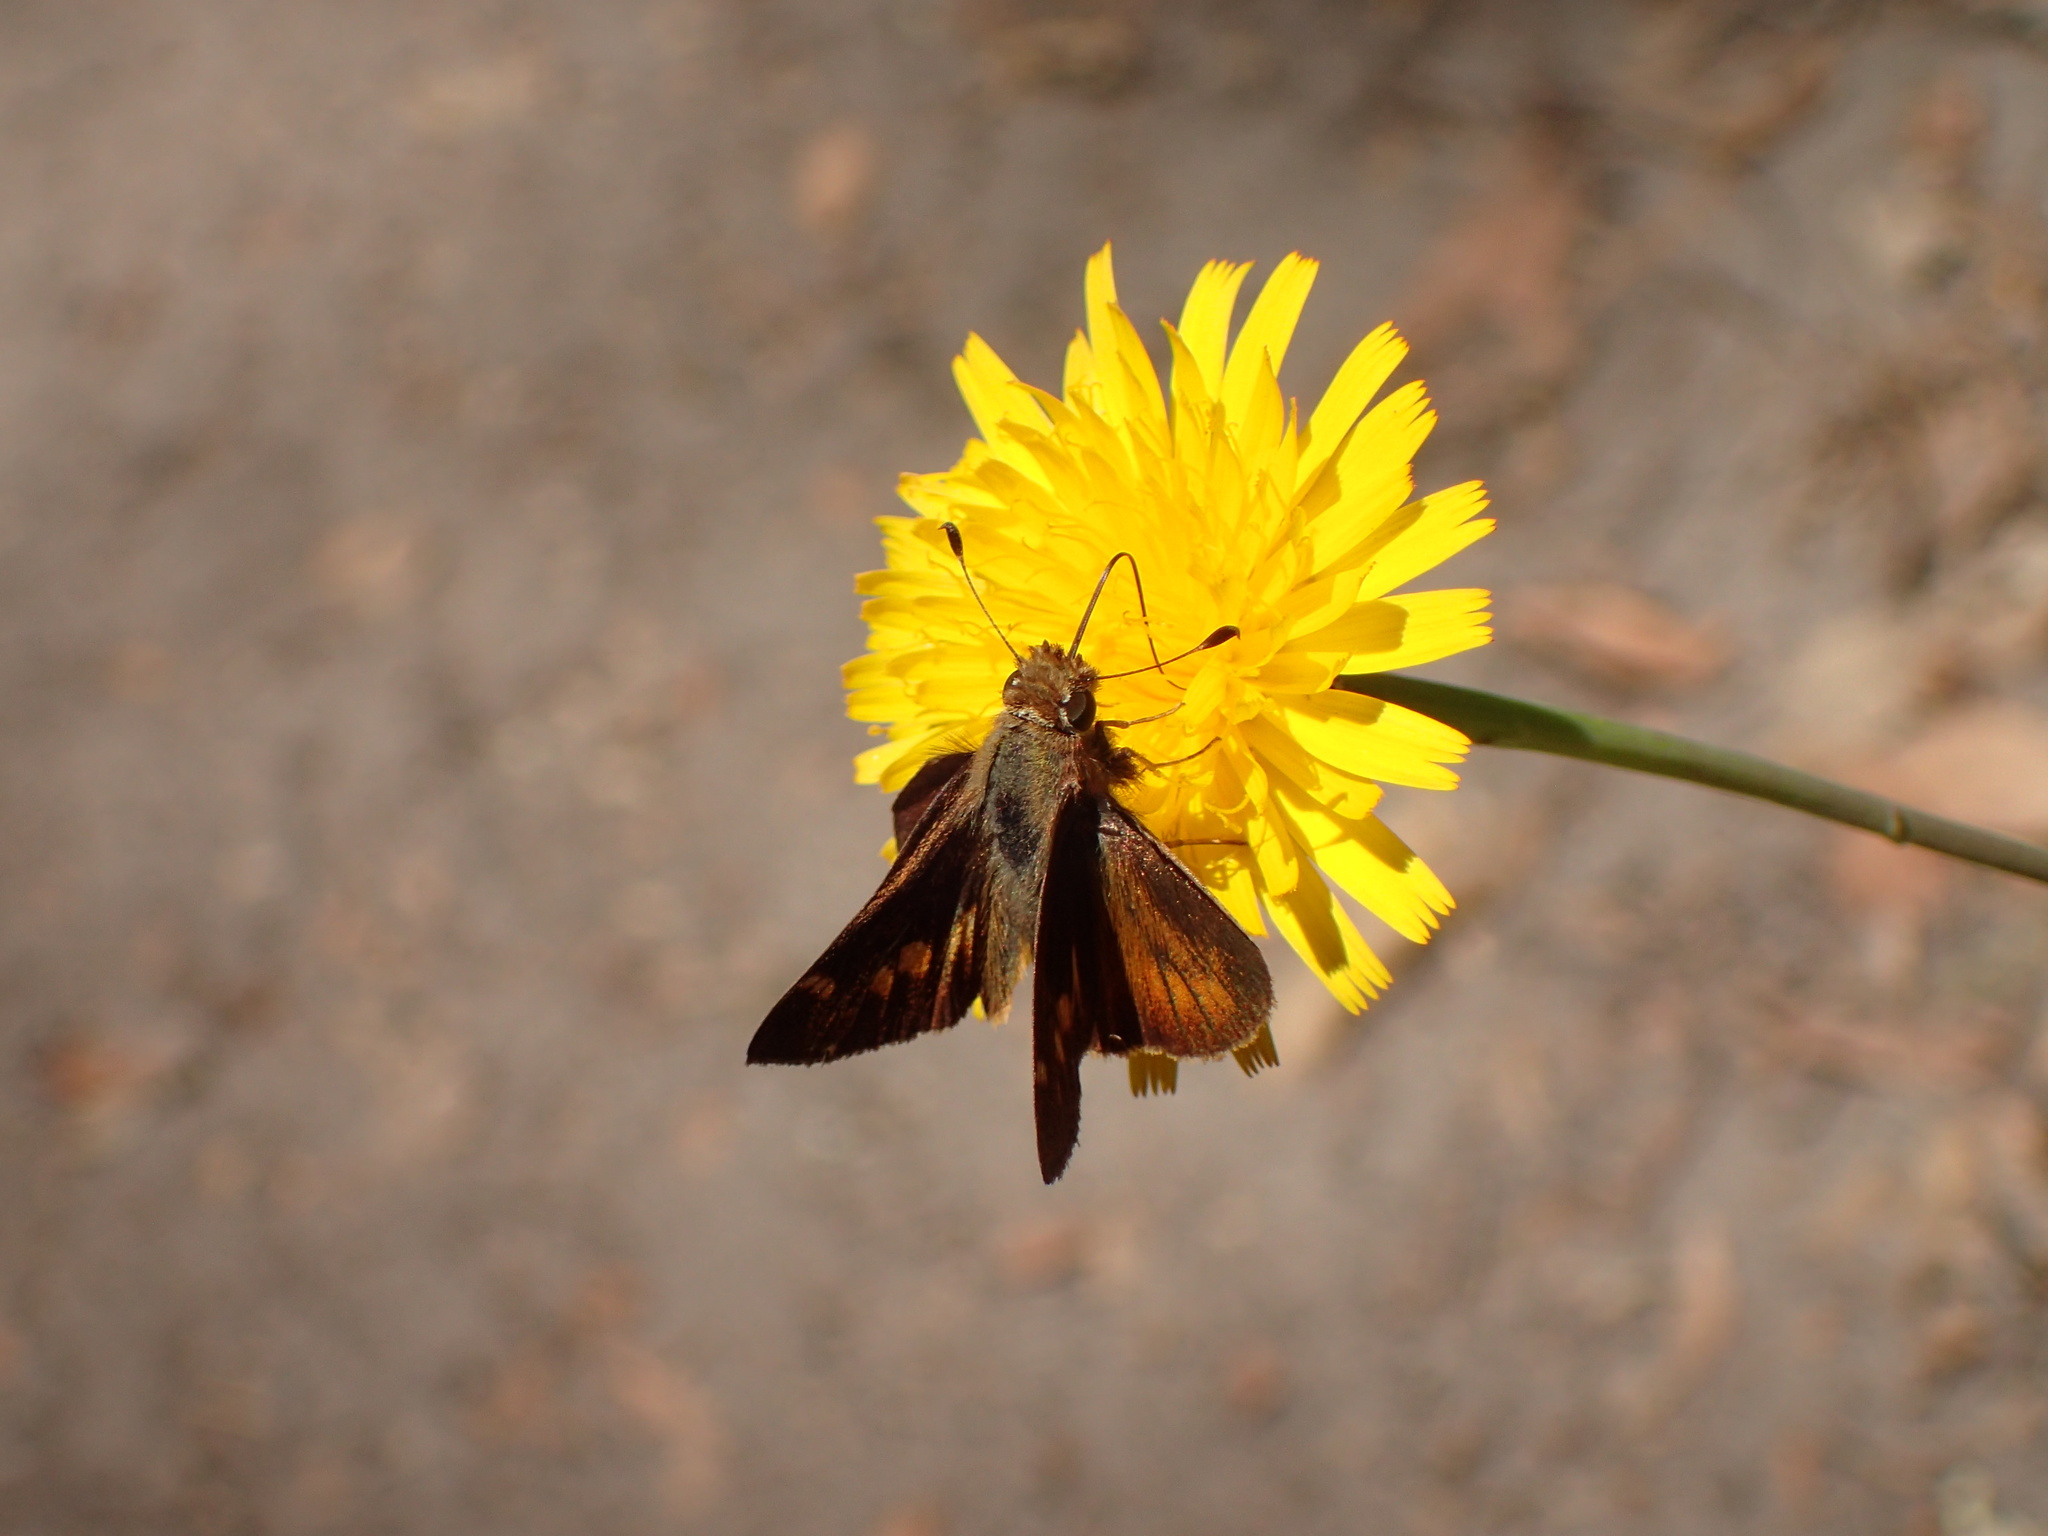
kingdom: Animalia
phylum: Arthropoda
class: Insecta
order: Lepidoptera
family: Hesperiidae
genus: Lon
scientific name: Lon melane
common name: Umber skipper
